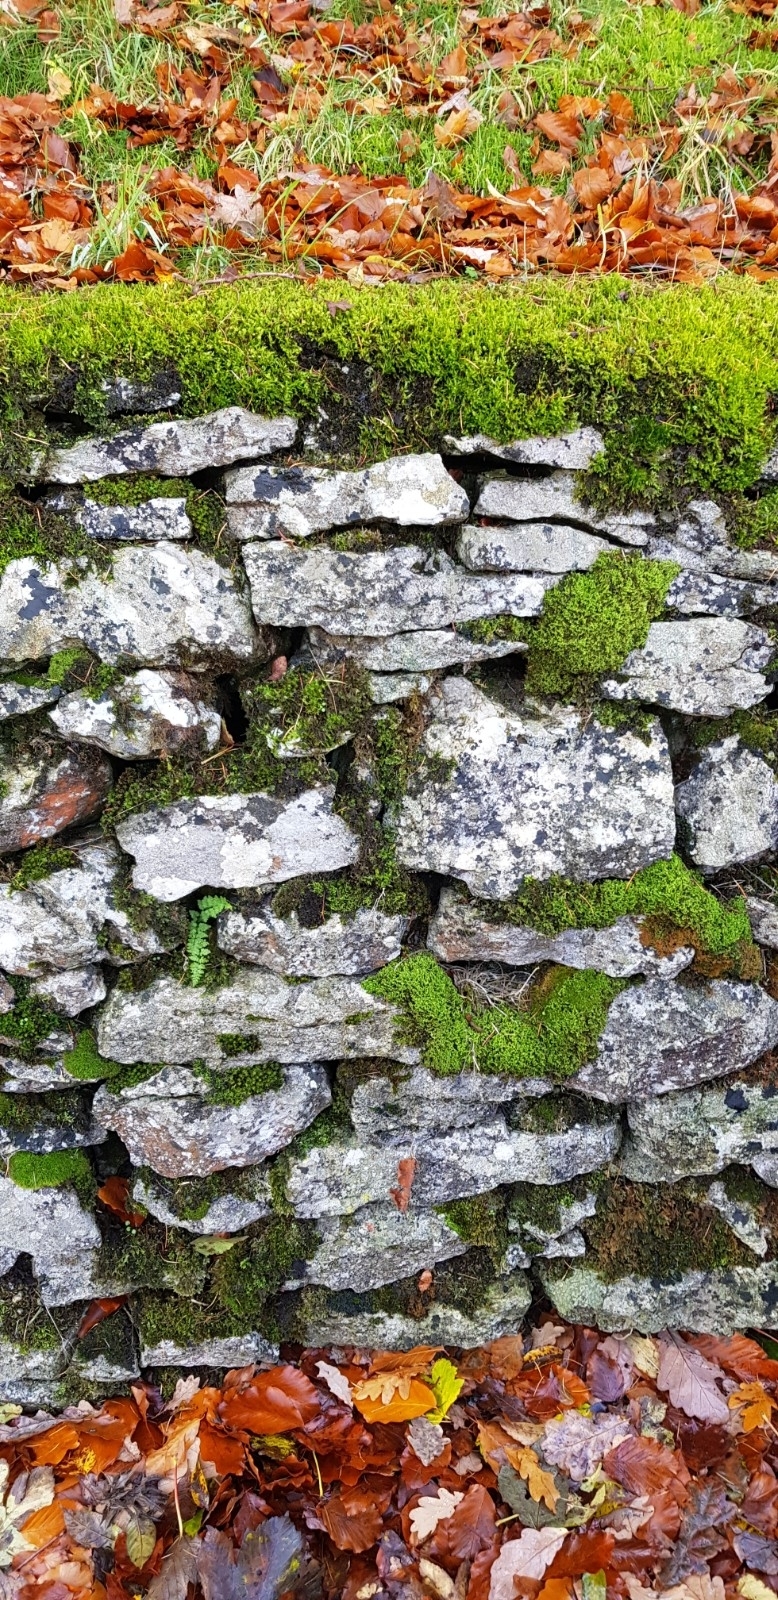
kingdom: Plantae
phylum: Bryophyta
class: Bryopsida
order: Hypnales
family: Pylaisiaceae
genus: Calliergonella
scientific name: Calliergonella cuspidata
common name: Common large wetland moss
